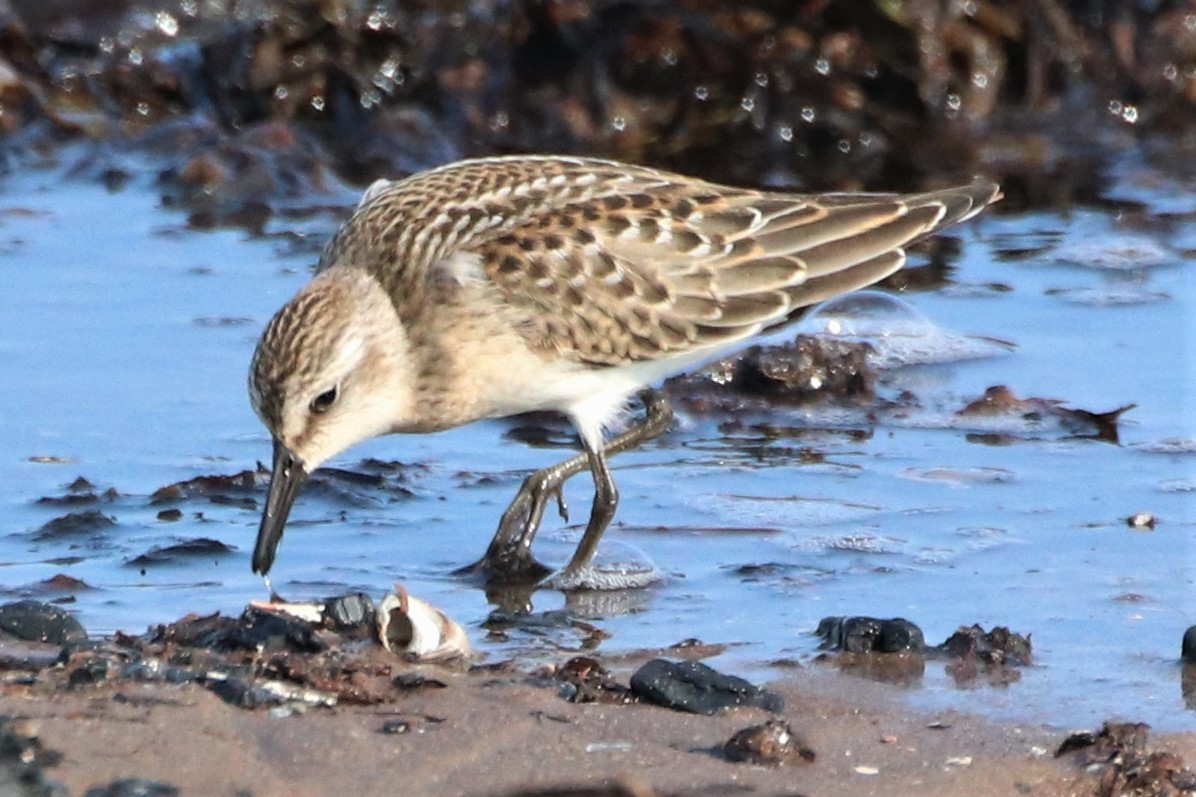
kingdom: Animalia
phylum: Chordata
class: Aves
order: Charadriiformes
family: Scolopacidae
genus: Calidris
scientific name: Calidris pusilla
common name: Semipalmated sandpiper
